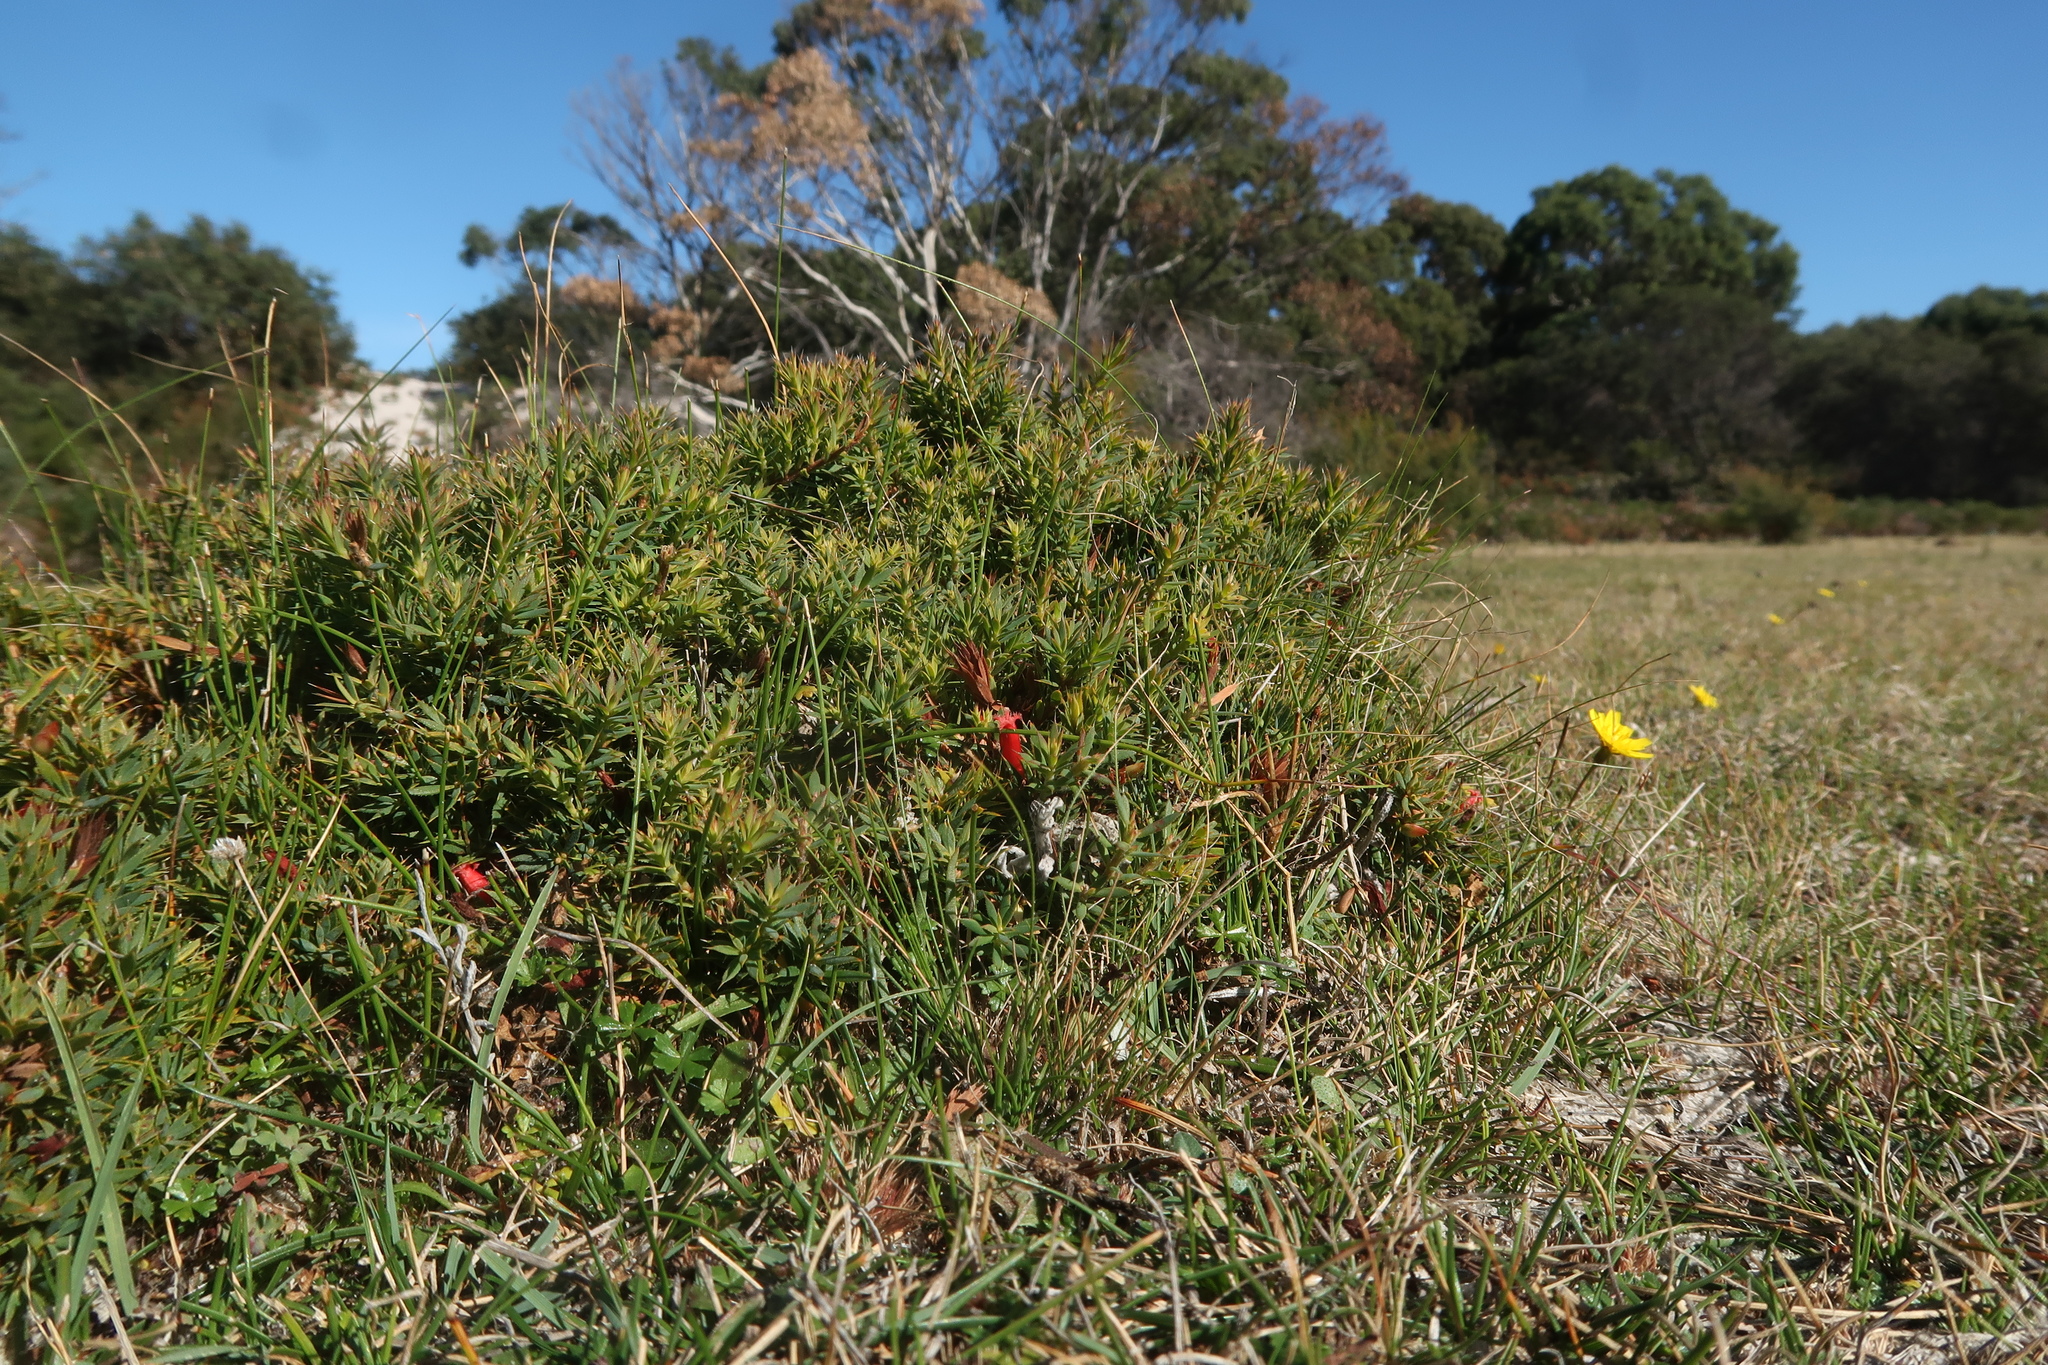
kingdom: Plantae
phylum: Tracheophyta
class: Magnoliopsida
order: Ericales
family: Ericaceae
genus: Styphelia
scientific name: Styphelia humifusa
